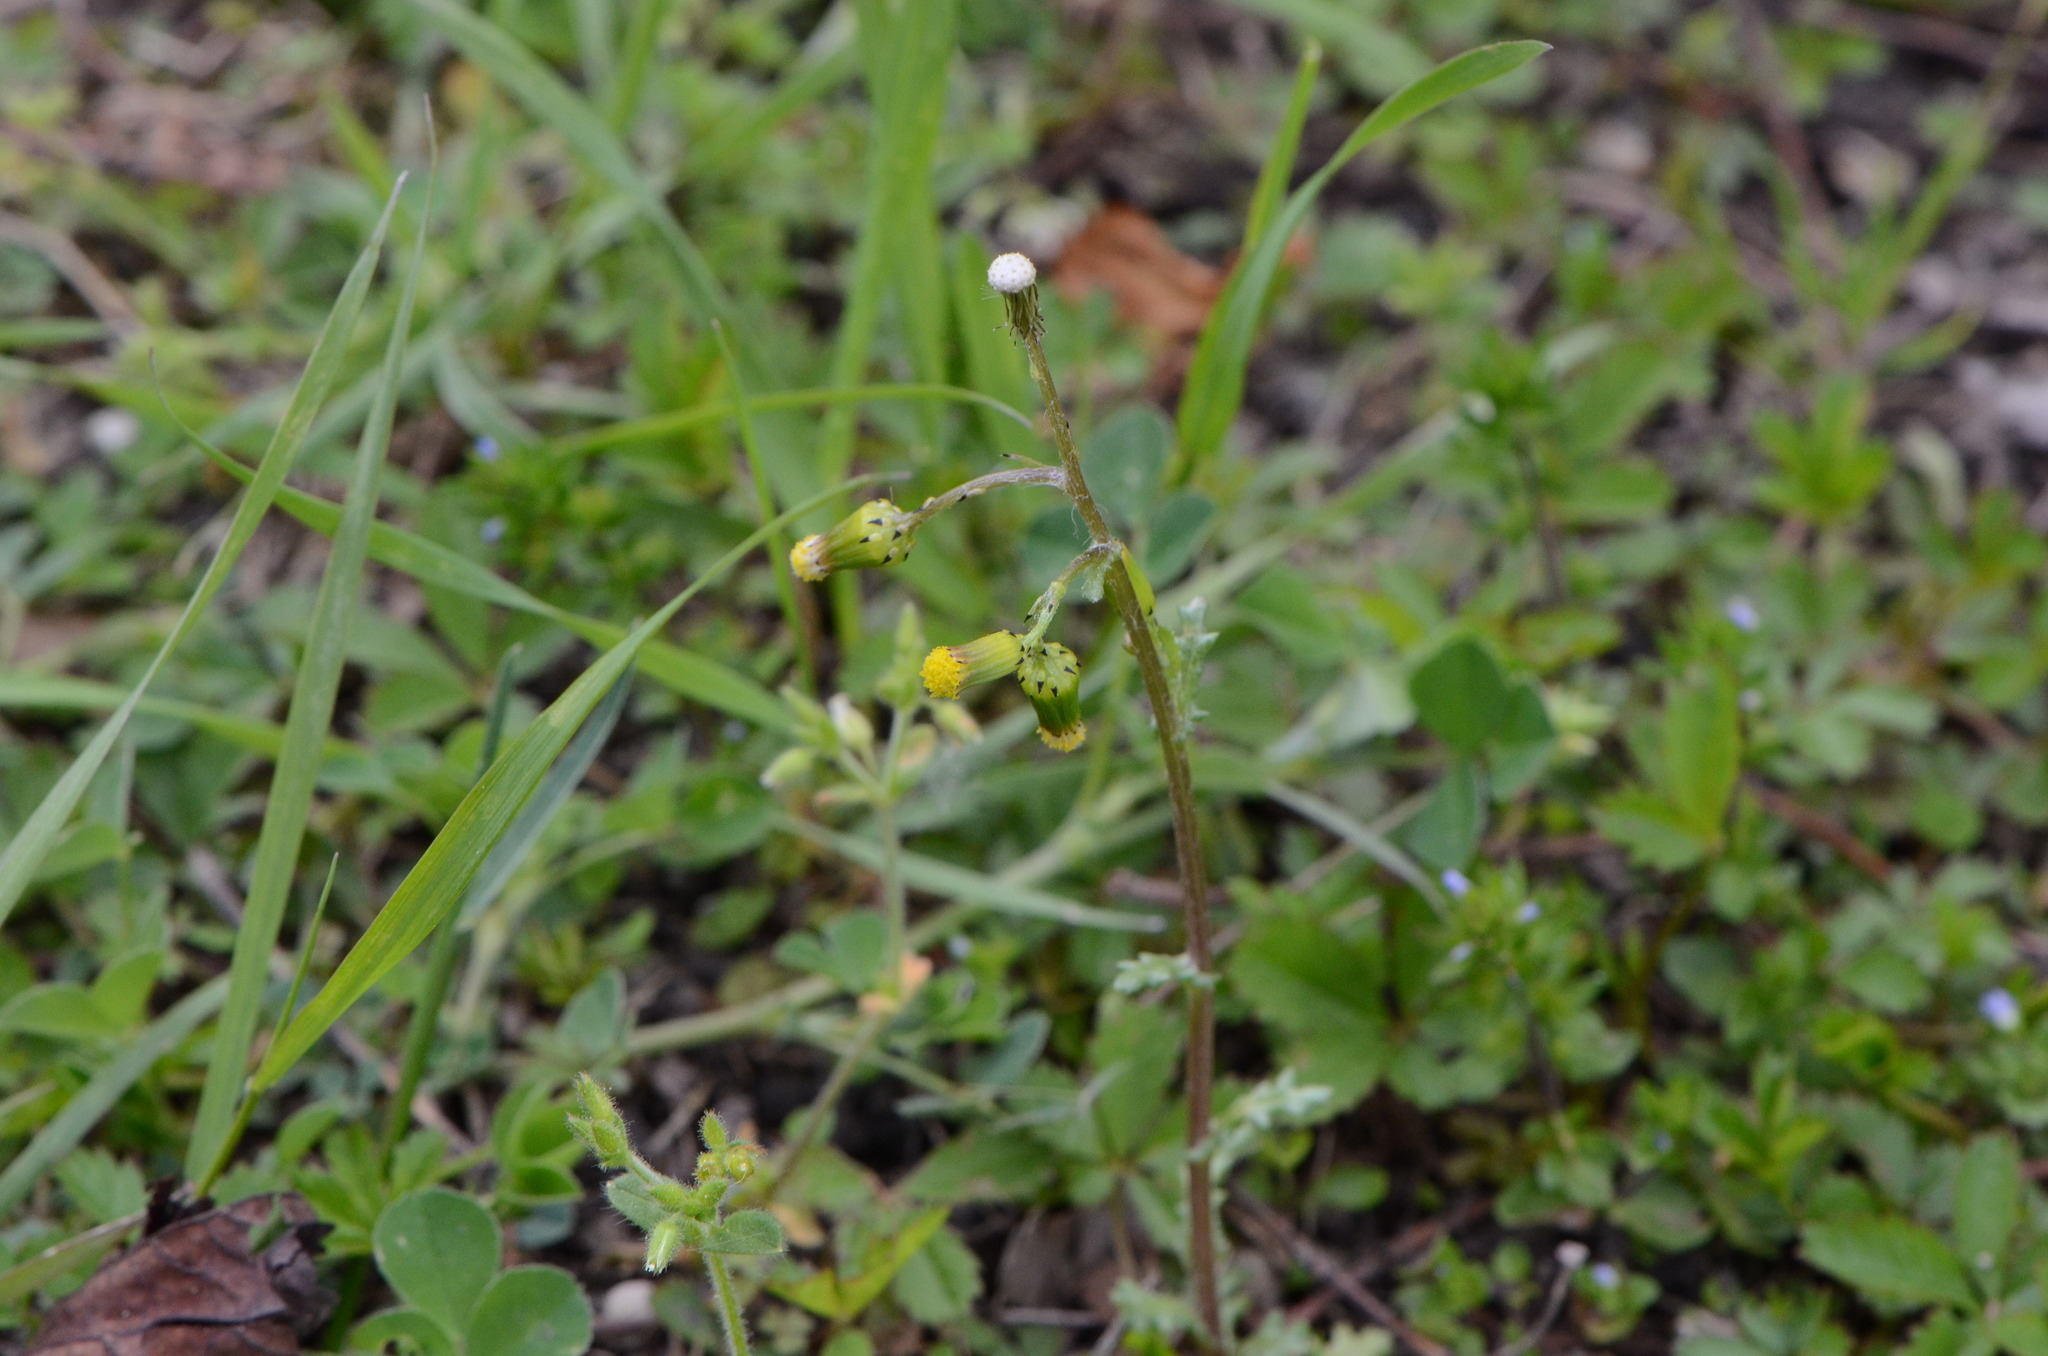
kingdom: Plantae
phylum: Tracheophyta
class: Magnoliopsida
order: Asterales
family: Asteraceae
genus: Senecio
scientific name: Senecio vulgaris
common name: Old-man-in-the-spring
